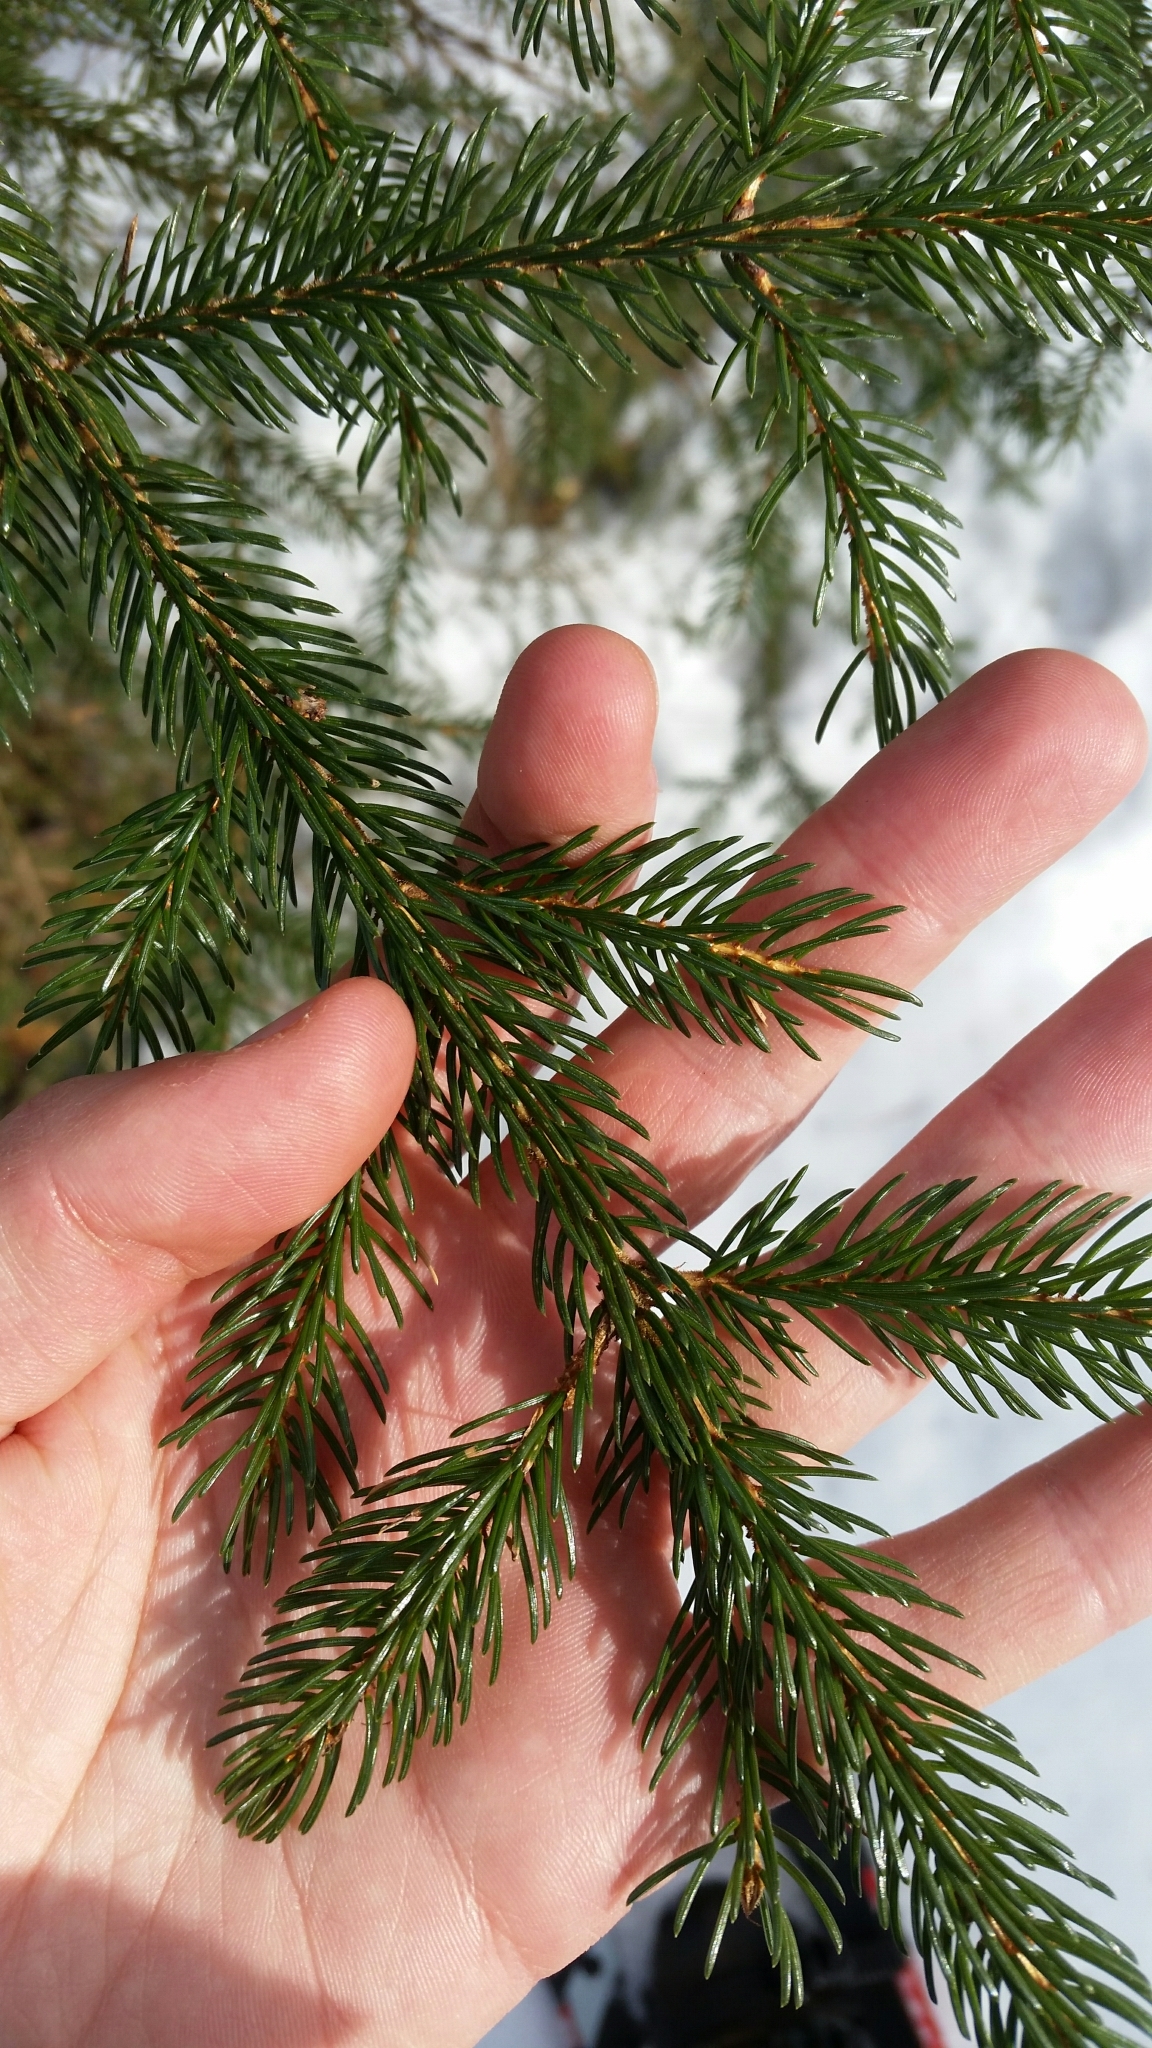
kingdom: Plantae
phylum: Tracheophyta
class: Pinopsida
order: Pinales
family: Pinaceae
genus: Picea
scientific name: Picea rubens
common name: Red spruce
